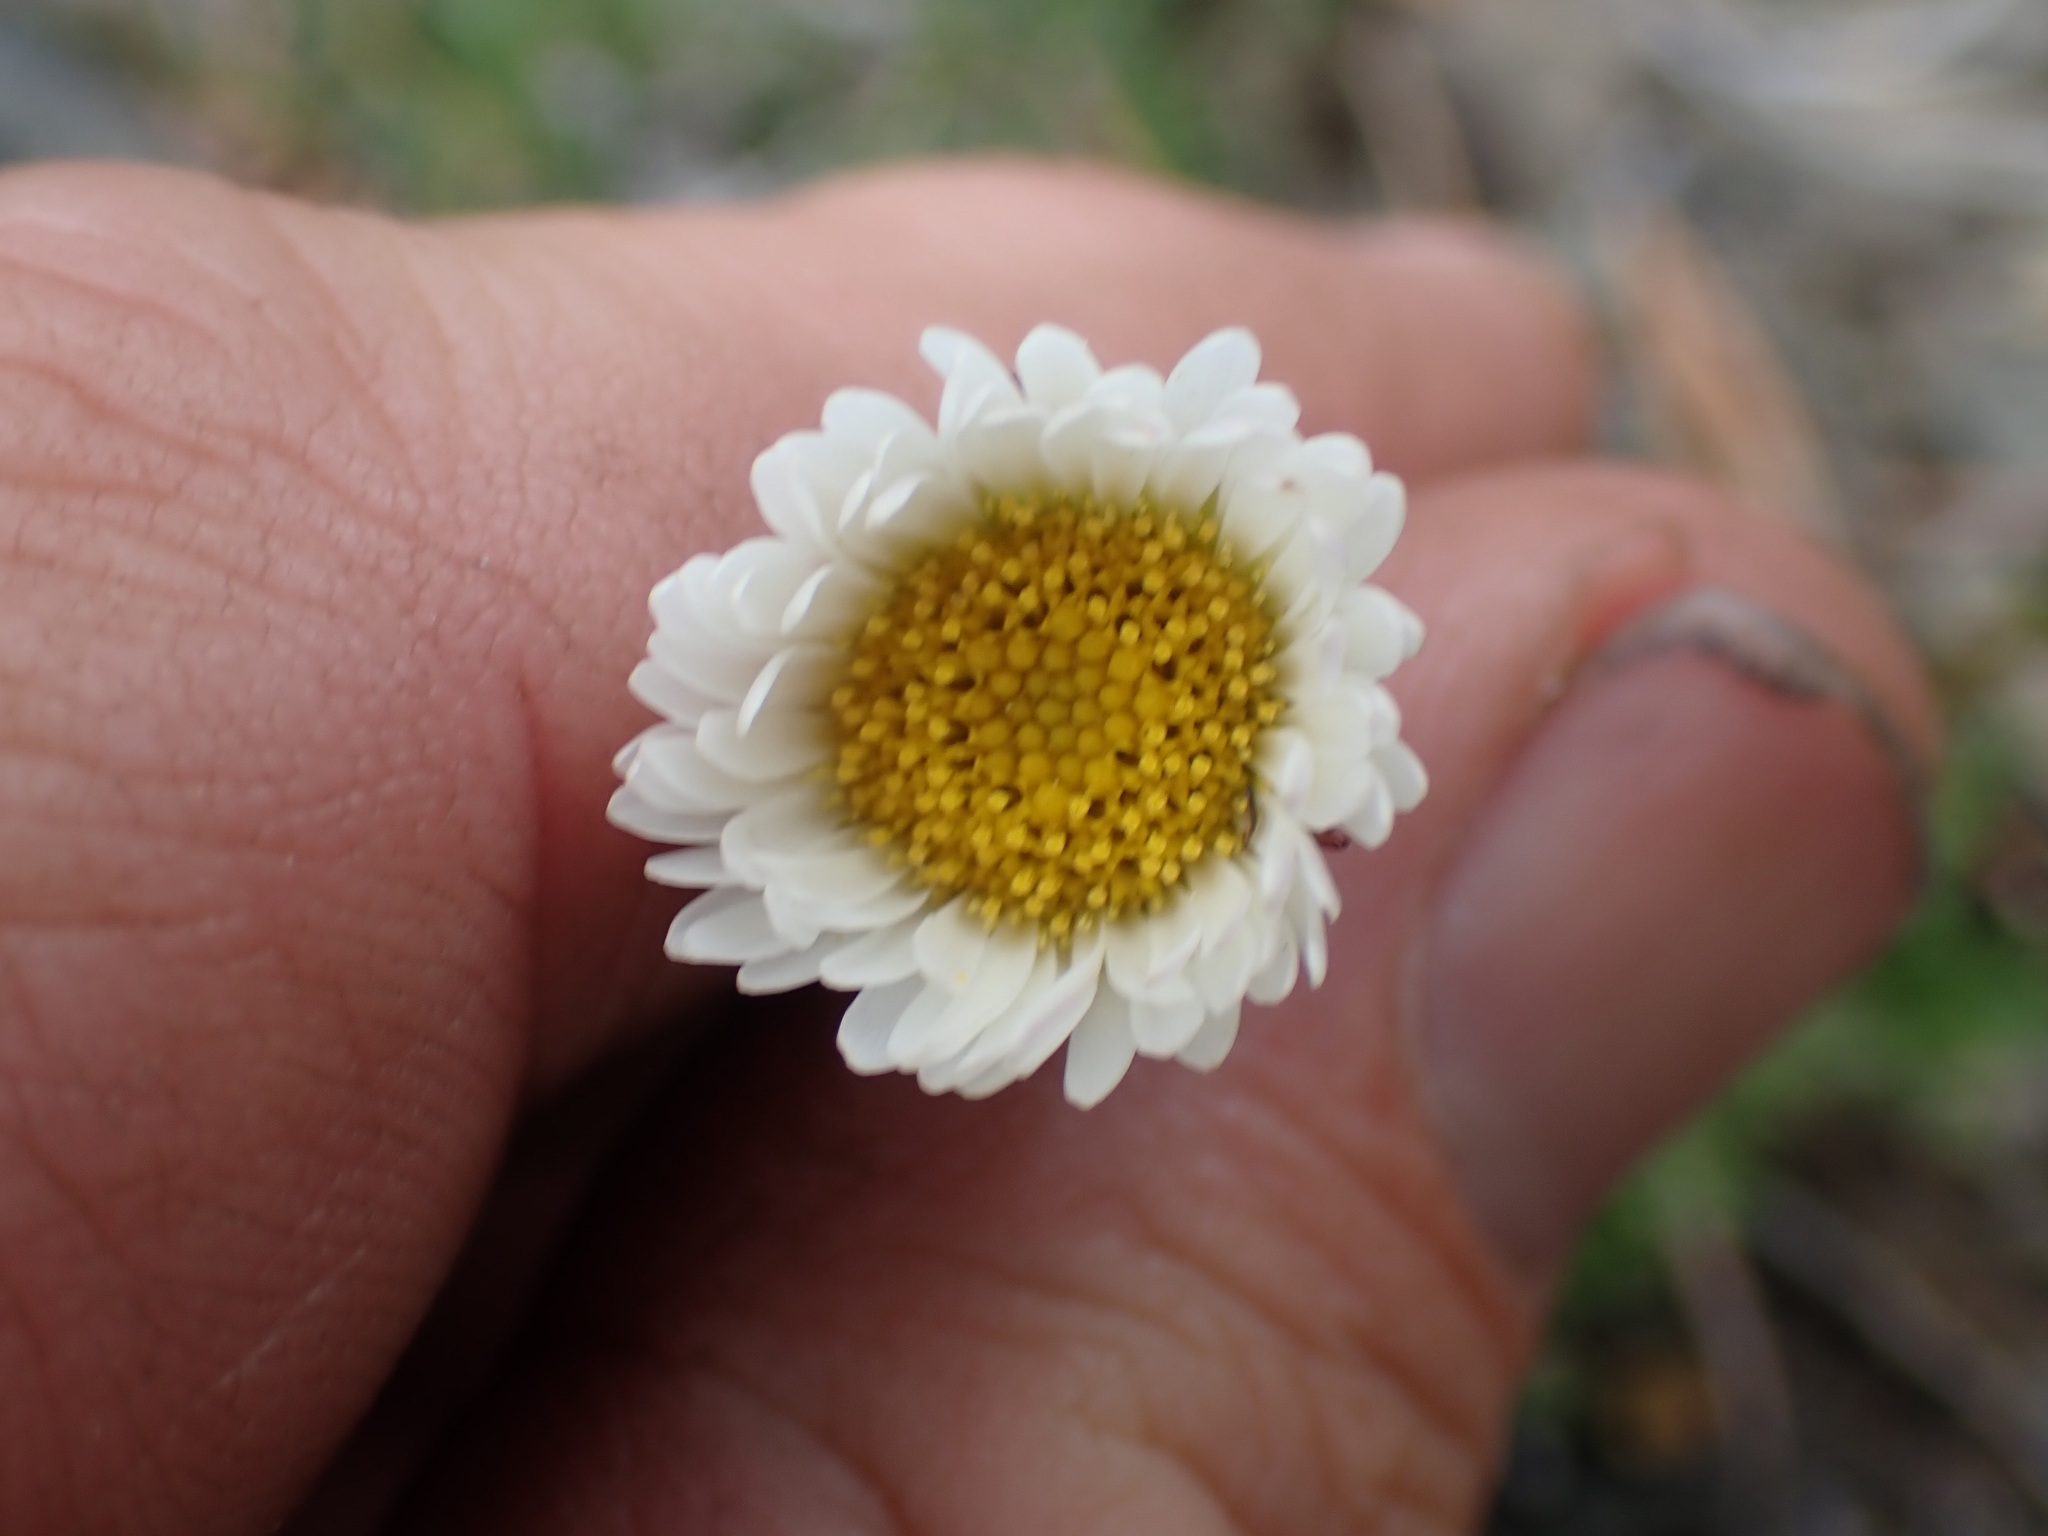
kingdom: Plantae
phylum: Tracheophyta
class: Magnoliopsida
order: Asterales
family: Asteraceae
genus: Erigeron
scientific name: Erigeron compositus
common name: Dwarf mountain fleabane
